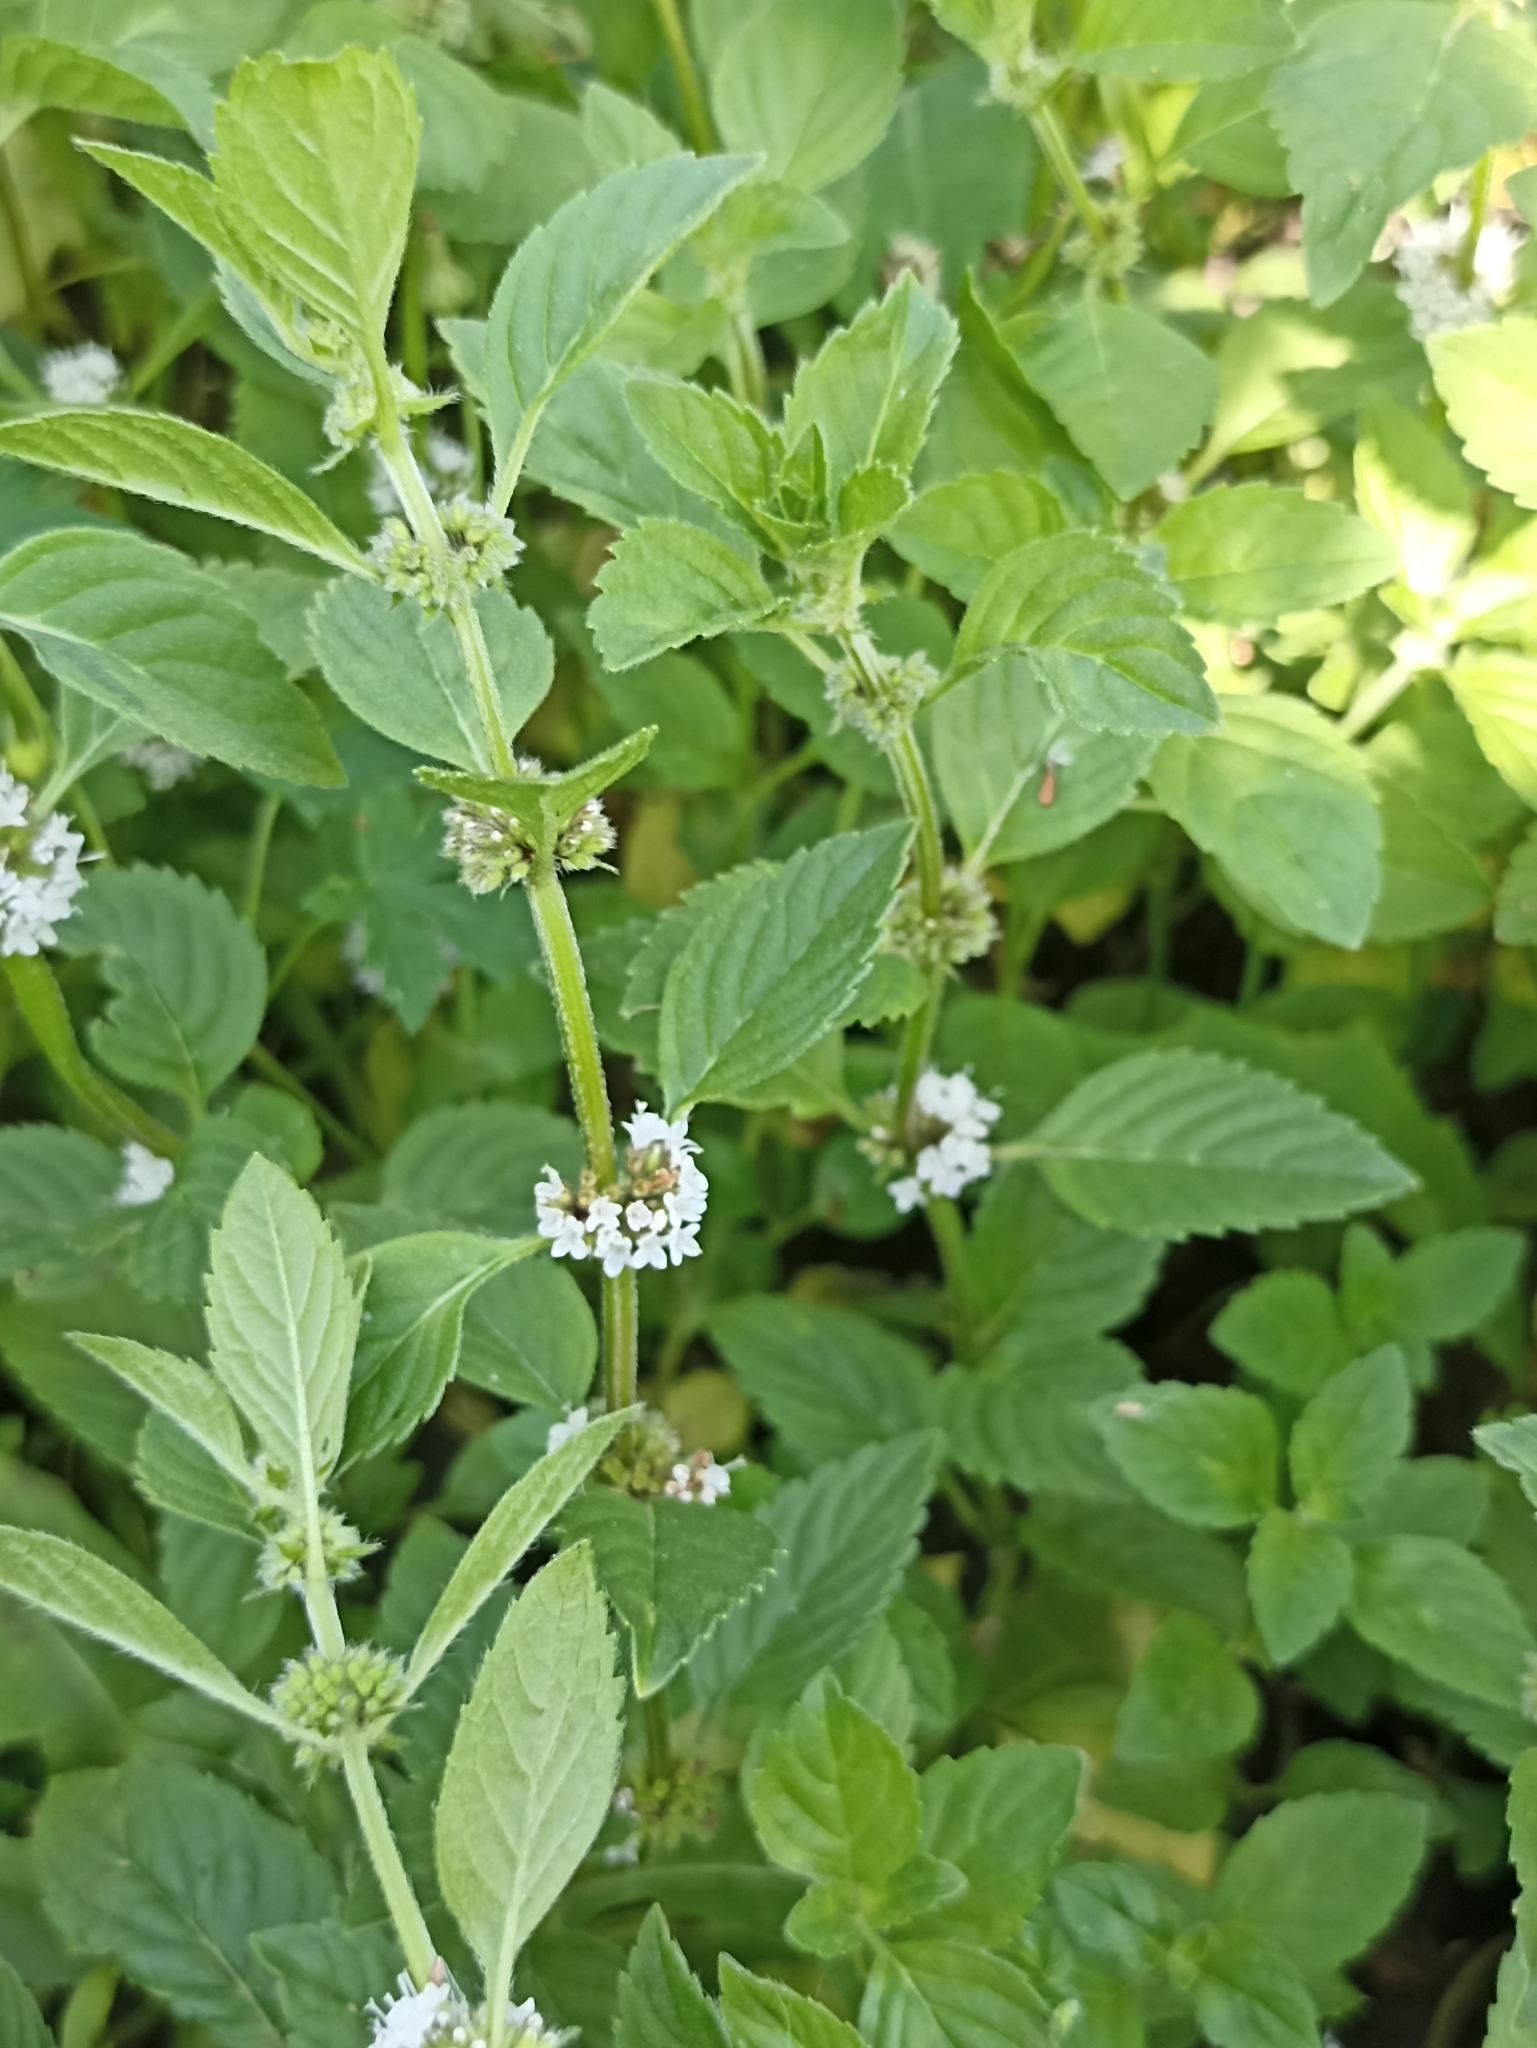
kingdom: Plantae
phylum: Tracheophyta
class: Magnoliopsida
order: Lamiales
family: Lamiaceae
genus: Mentha
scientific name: Mentha arvensis
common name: Corn mint
